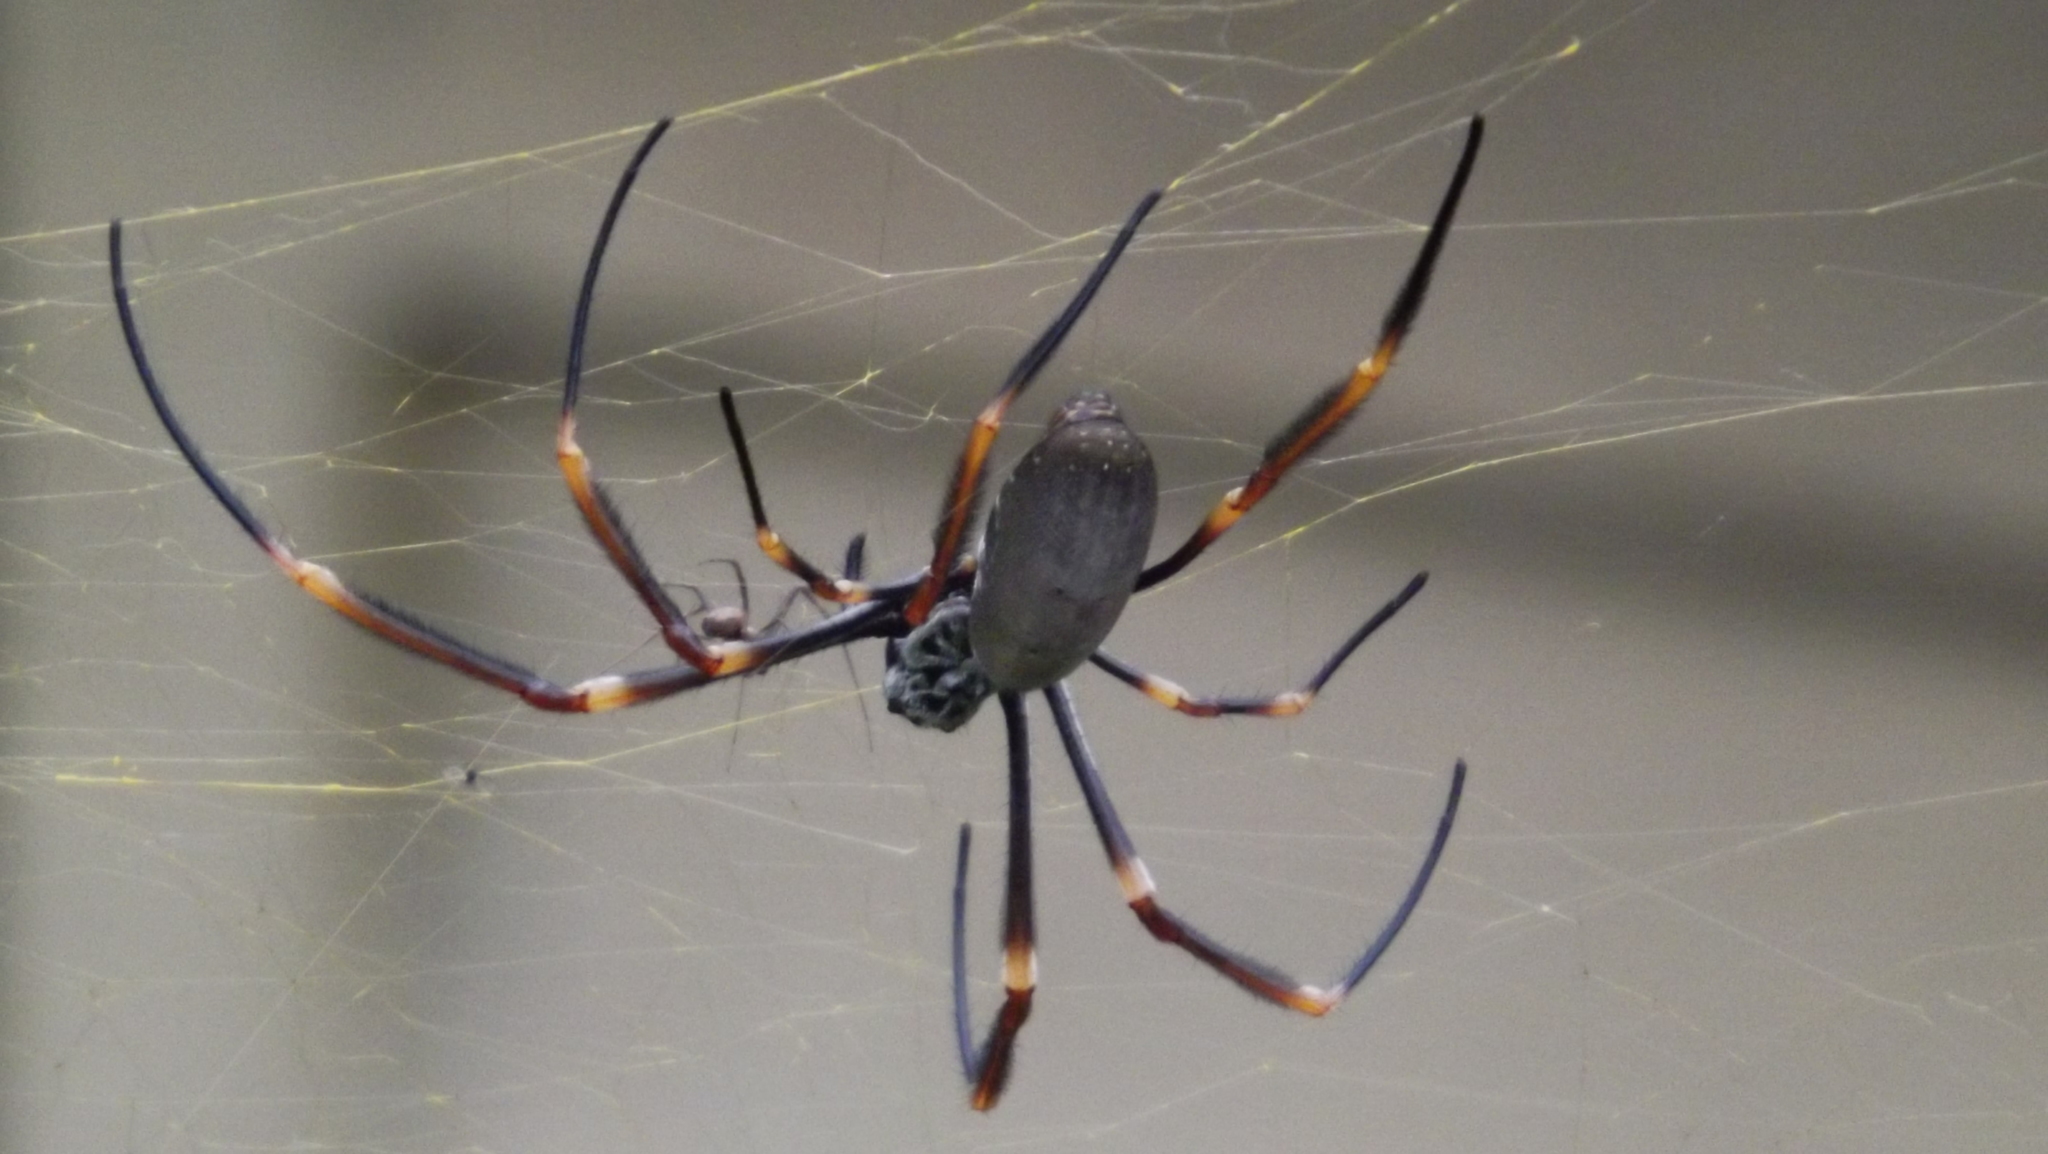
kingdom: Animalia
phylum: Arthropoda
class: Arachnida
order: Araneae
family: Araneidae
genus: Trichonephila
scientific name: Trichonephila plumipes
